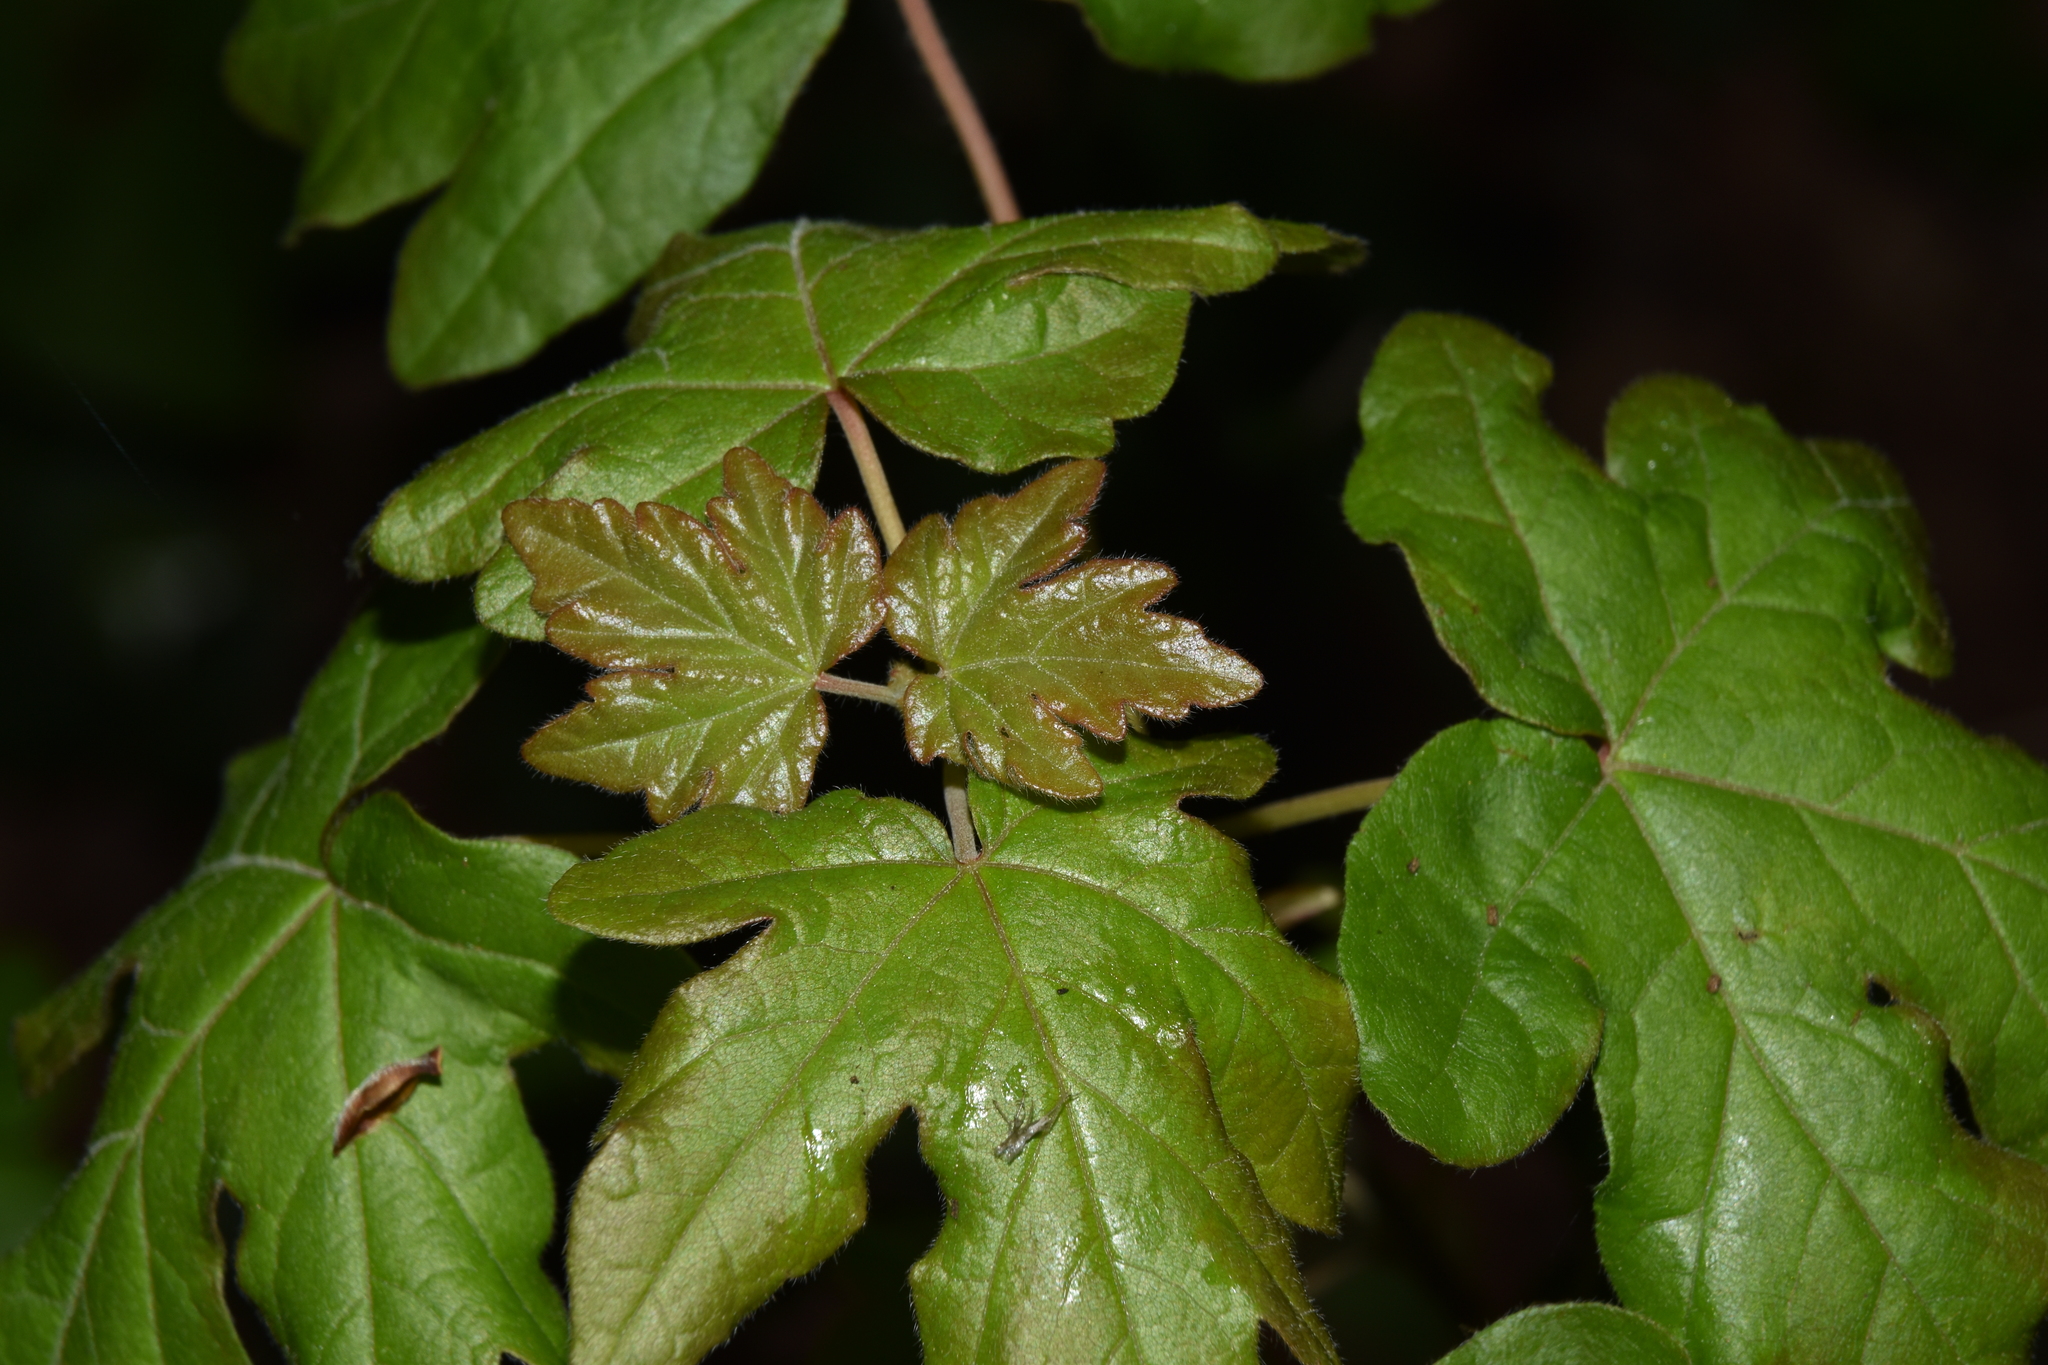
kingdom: Plantae
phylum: Tracheophyta
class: Magnoliopsida
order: Sapindales
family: Sapindaceae
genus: Acer
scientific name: Acer campestre
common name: Field maple
